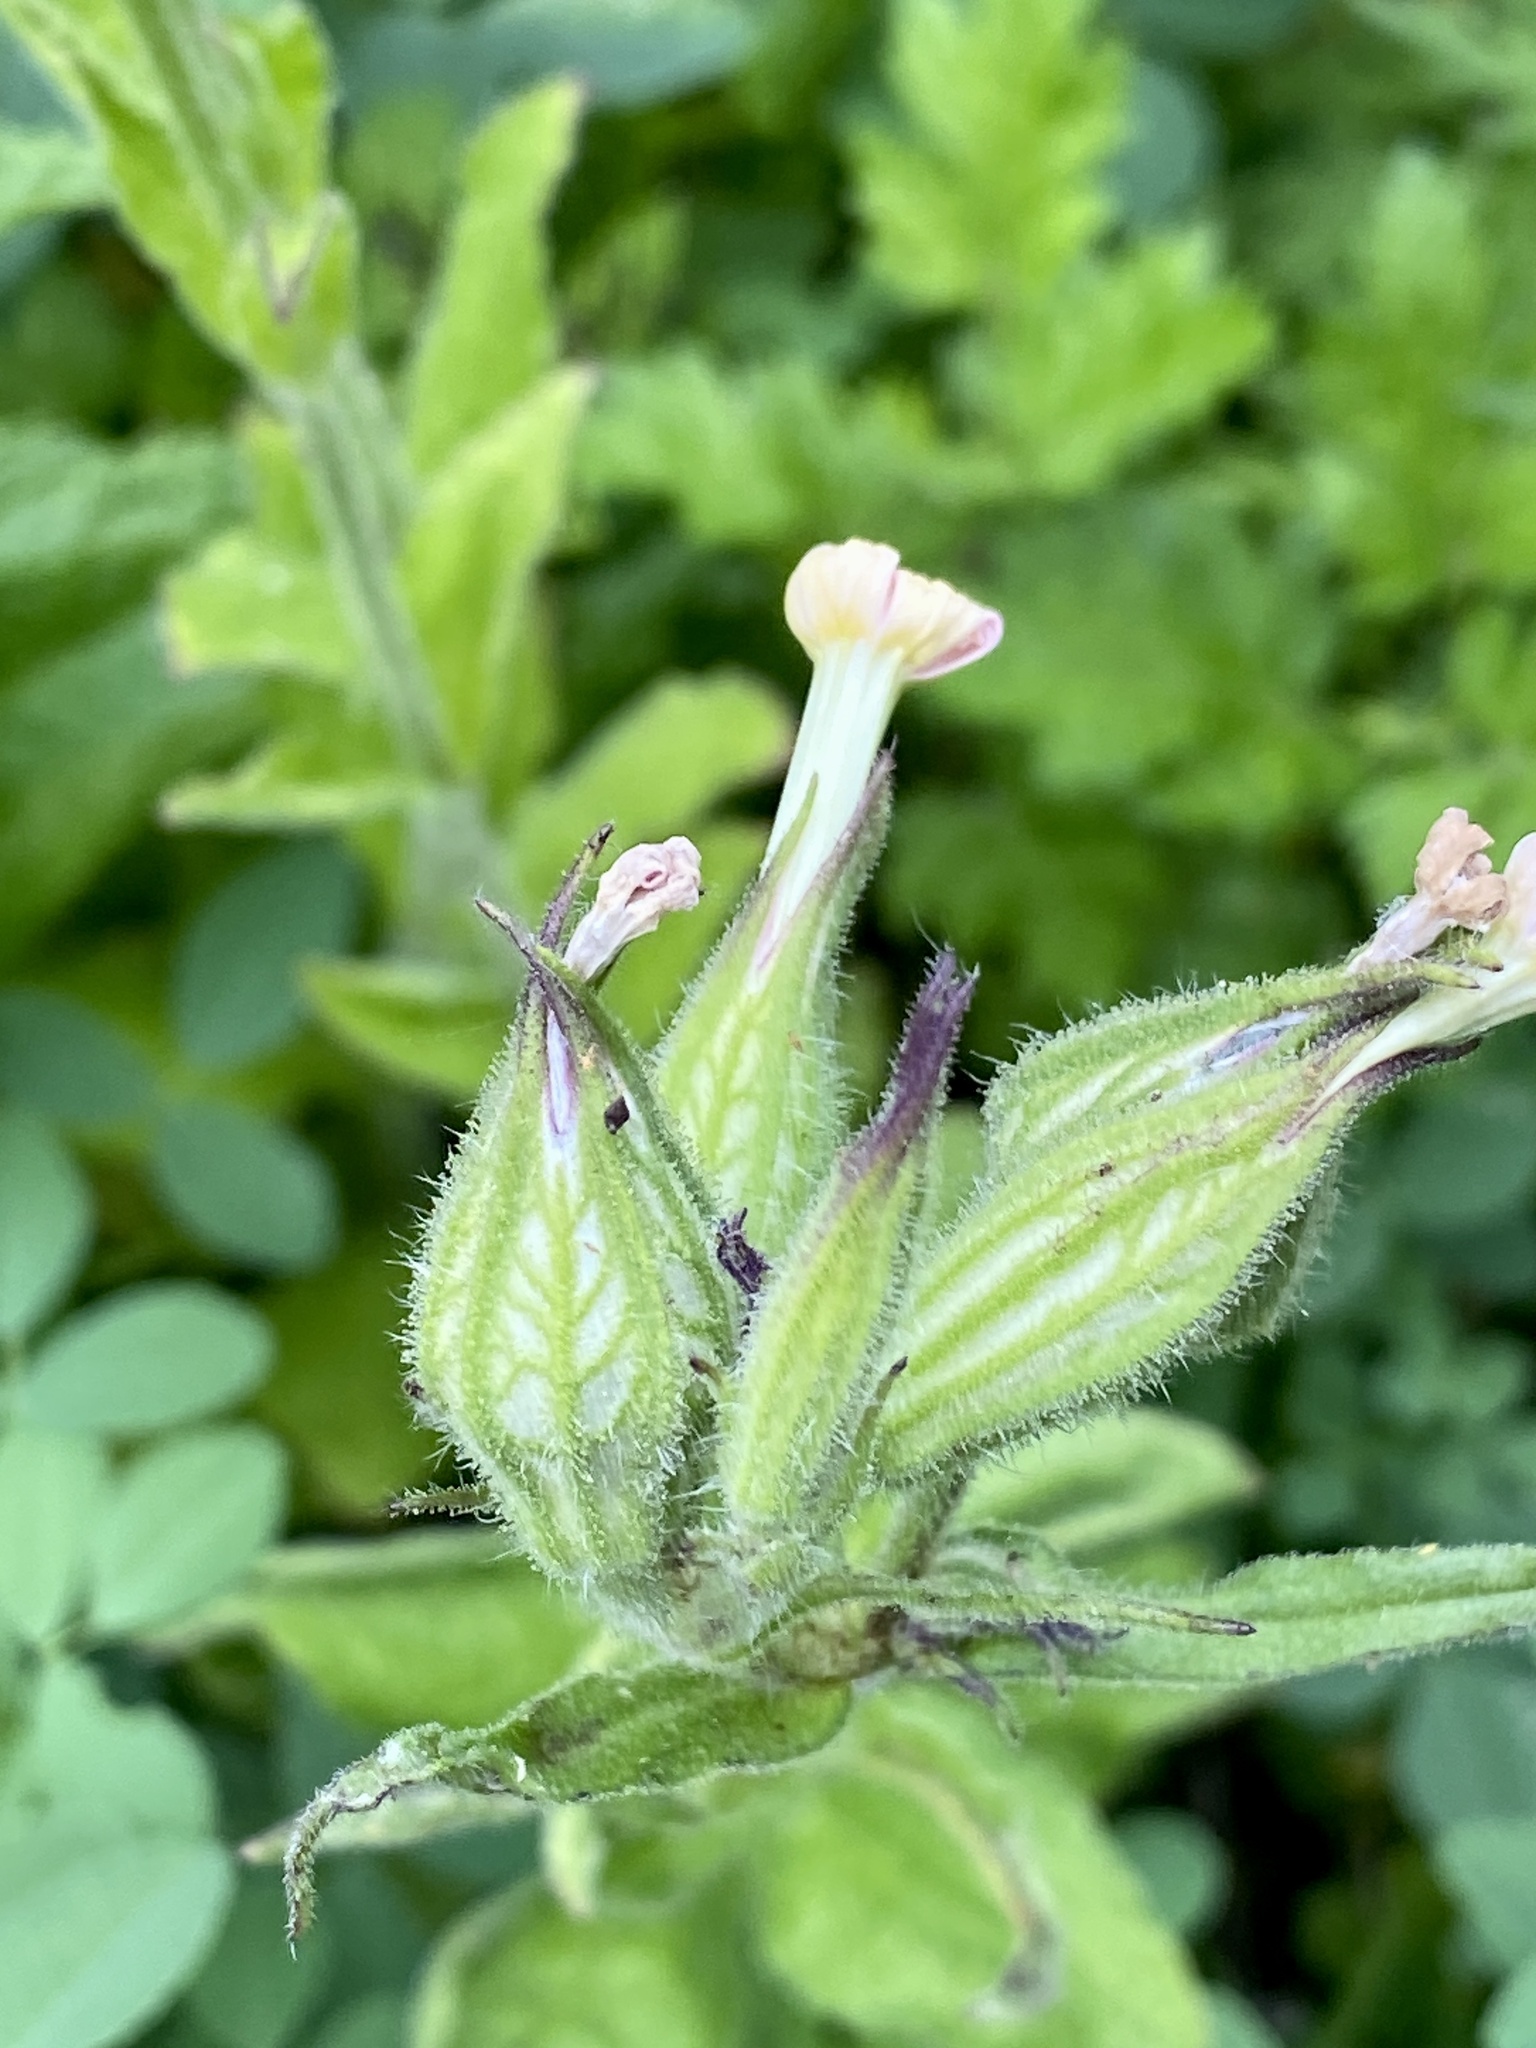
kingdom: Plantae
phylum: Tracheophyta
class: Magnoliopsida
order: Caryophyllales
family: Caryophyllaceae
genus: Silene
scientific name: Silene latifolia
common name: White campion
